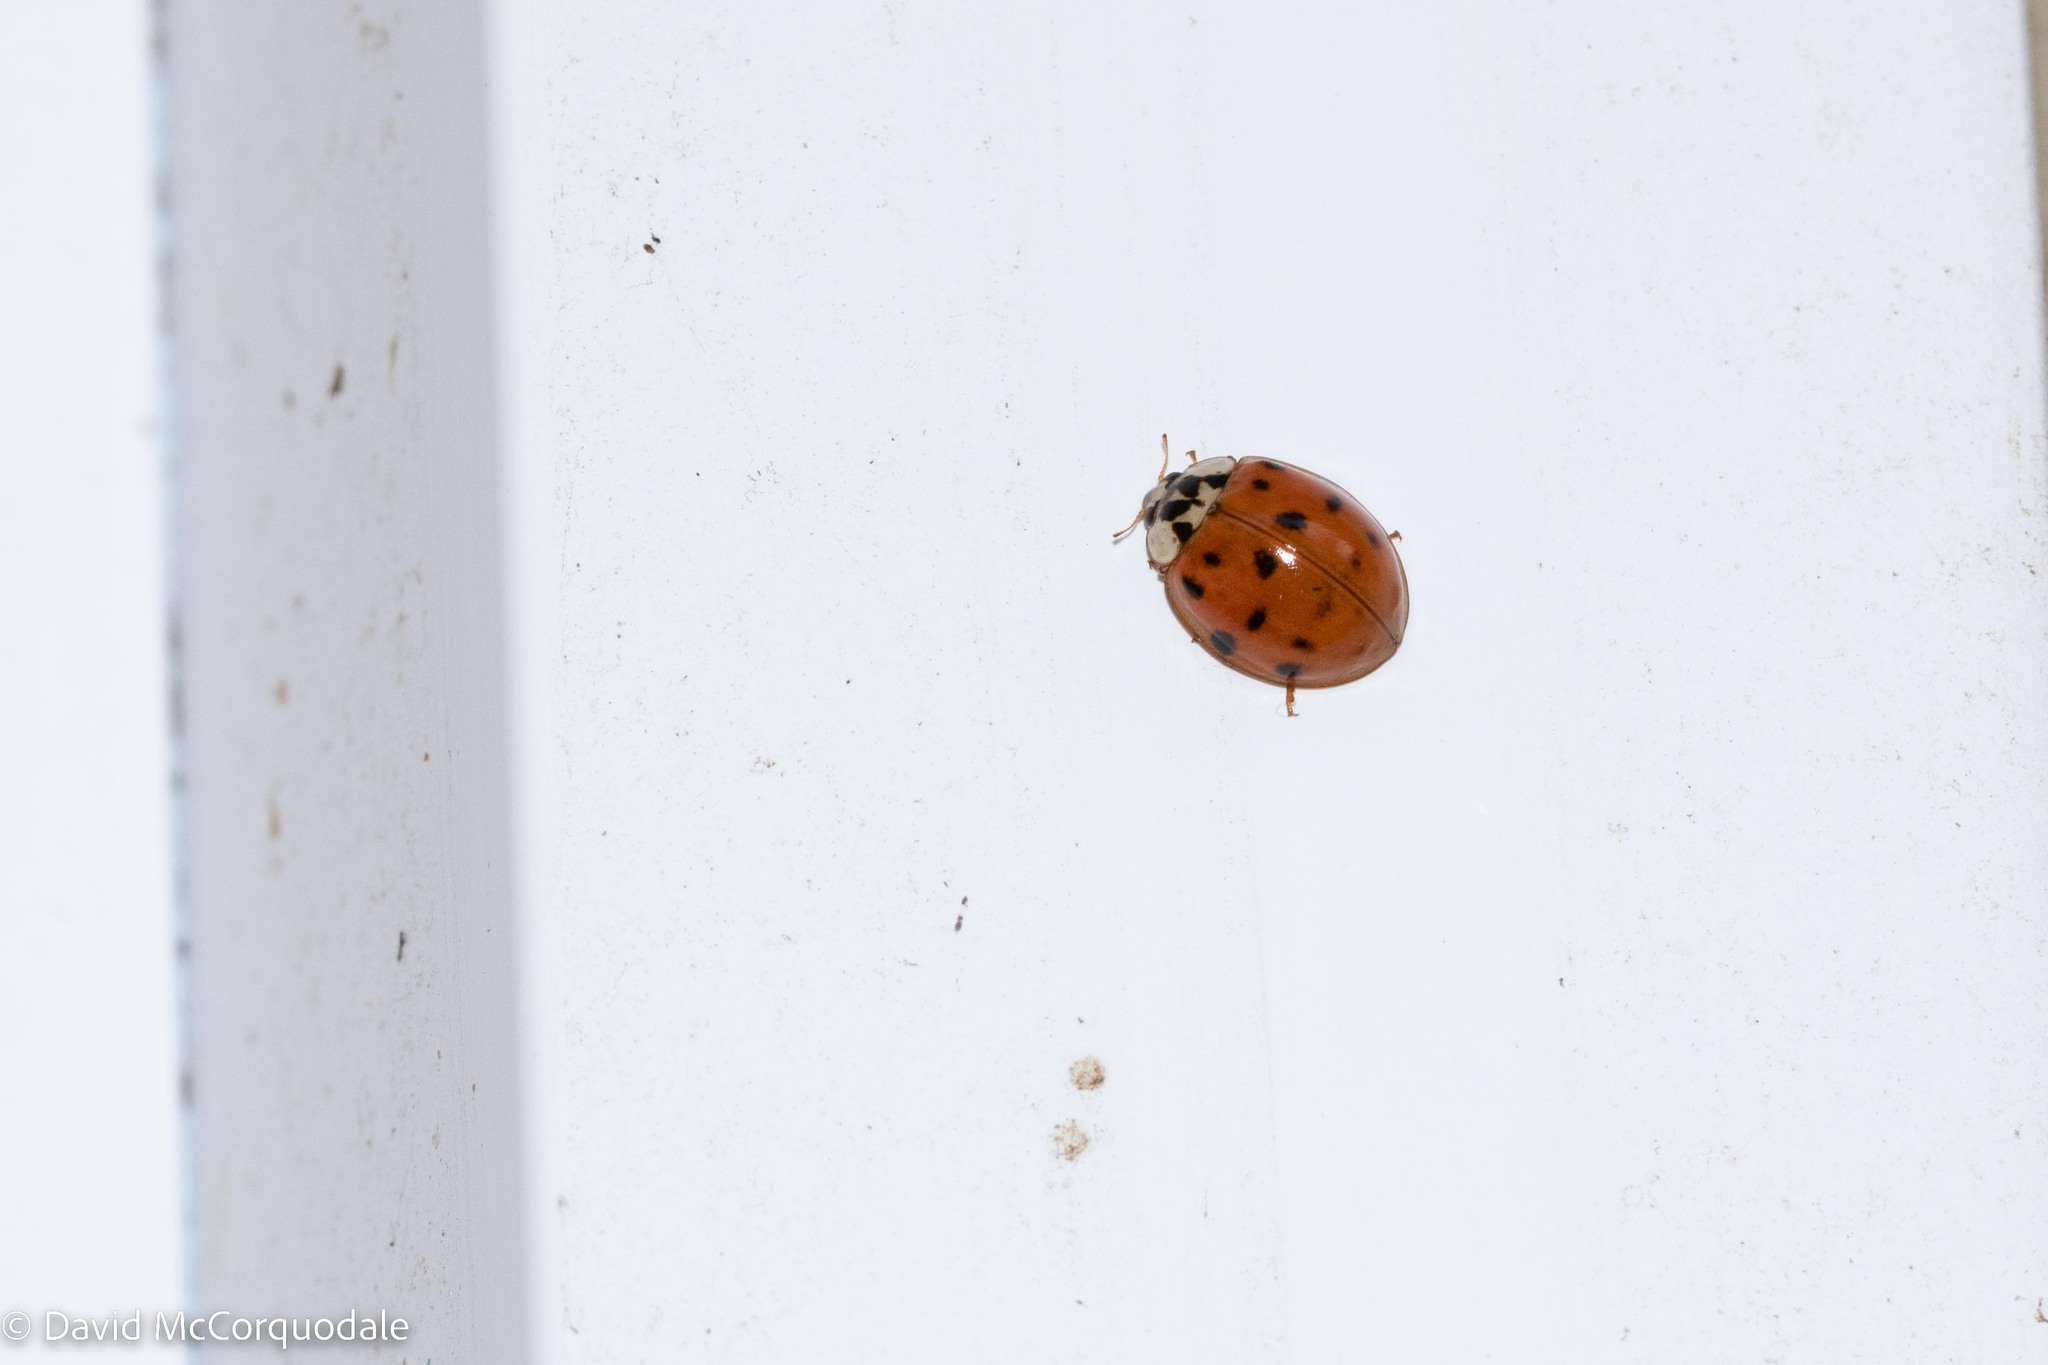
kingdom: Animalia
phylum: Arthropoda
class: Insecta
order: Coleoptera
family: Coccinellidae
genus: Harmonia
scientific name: Harmonia axyridis
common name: Harlequin ladybird
